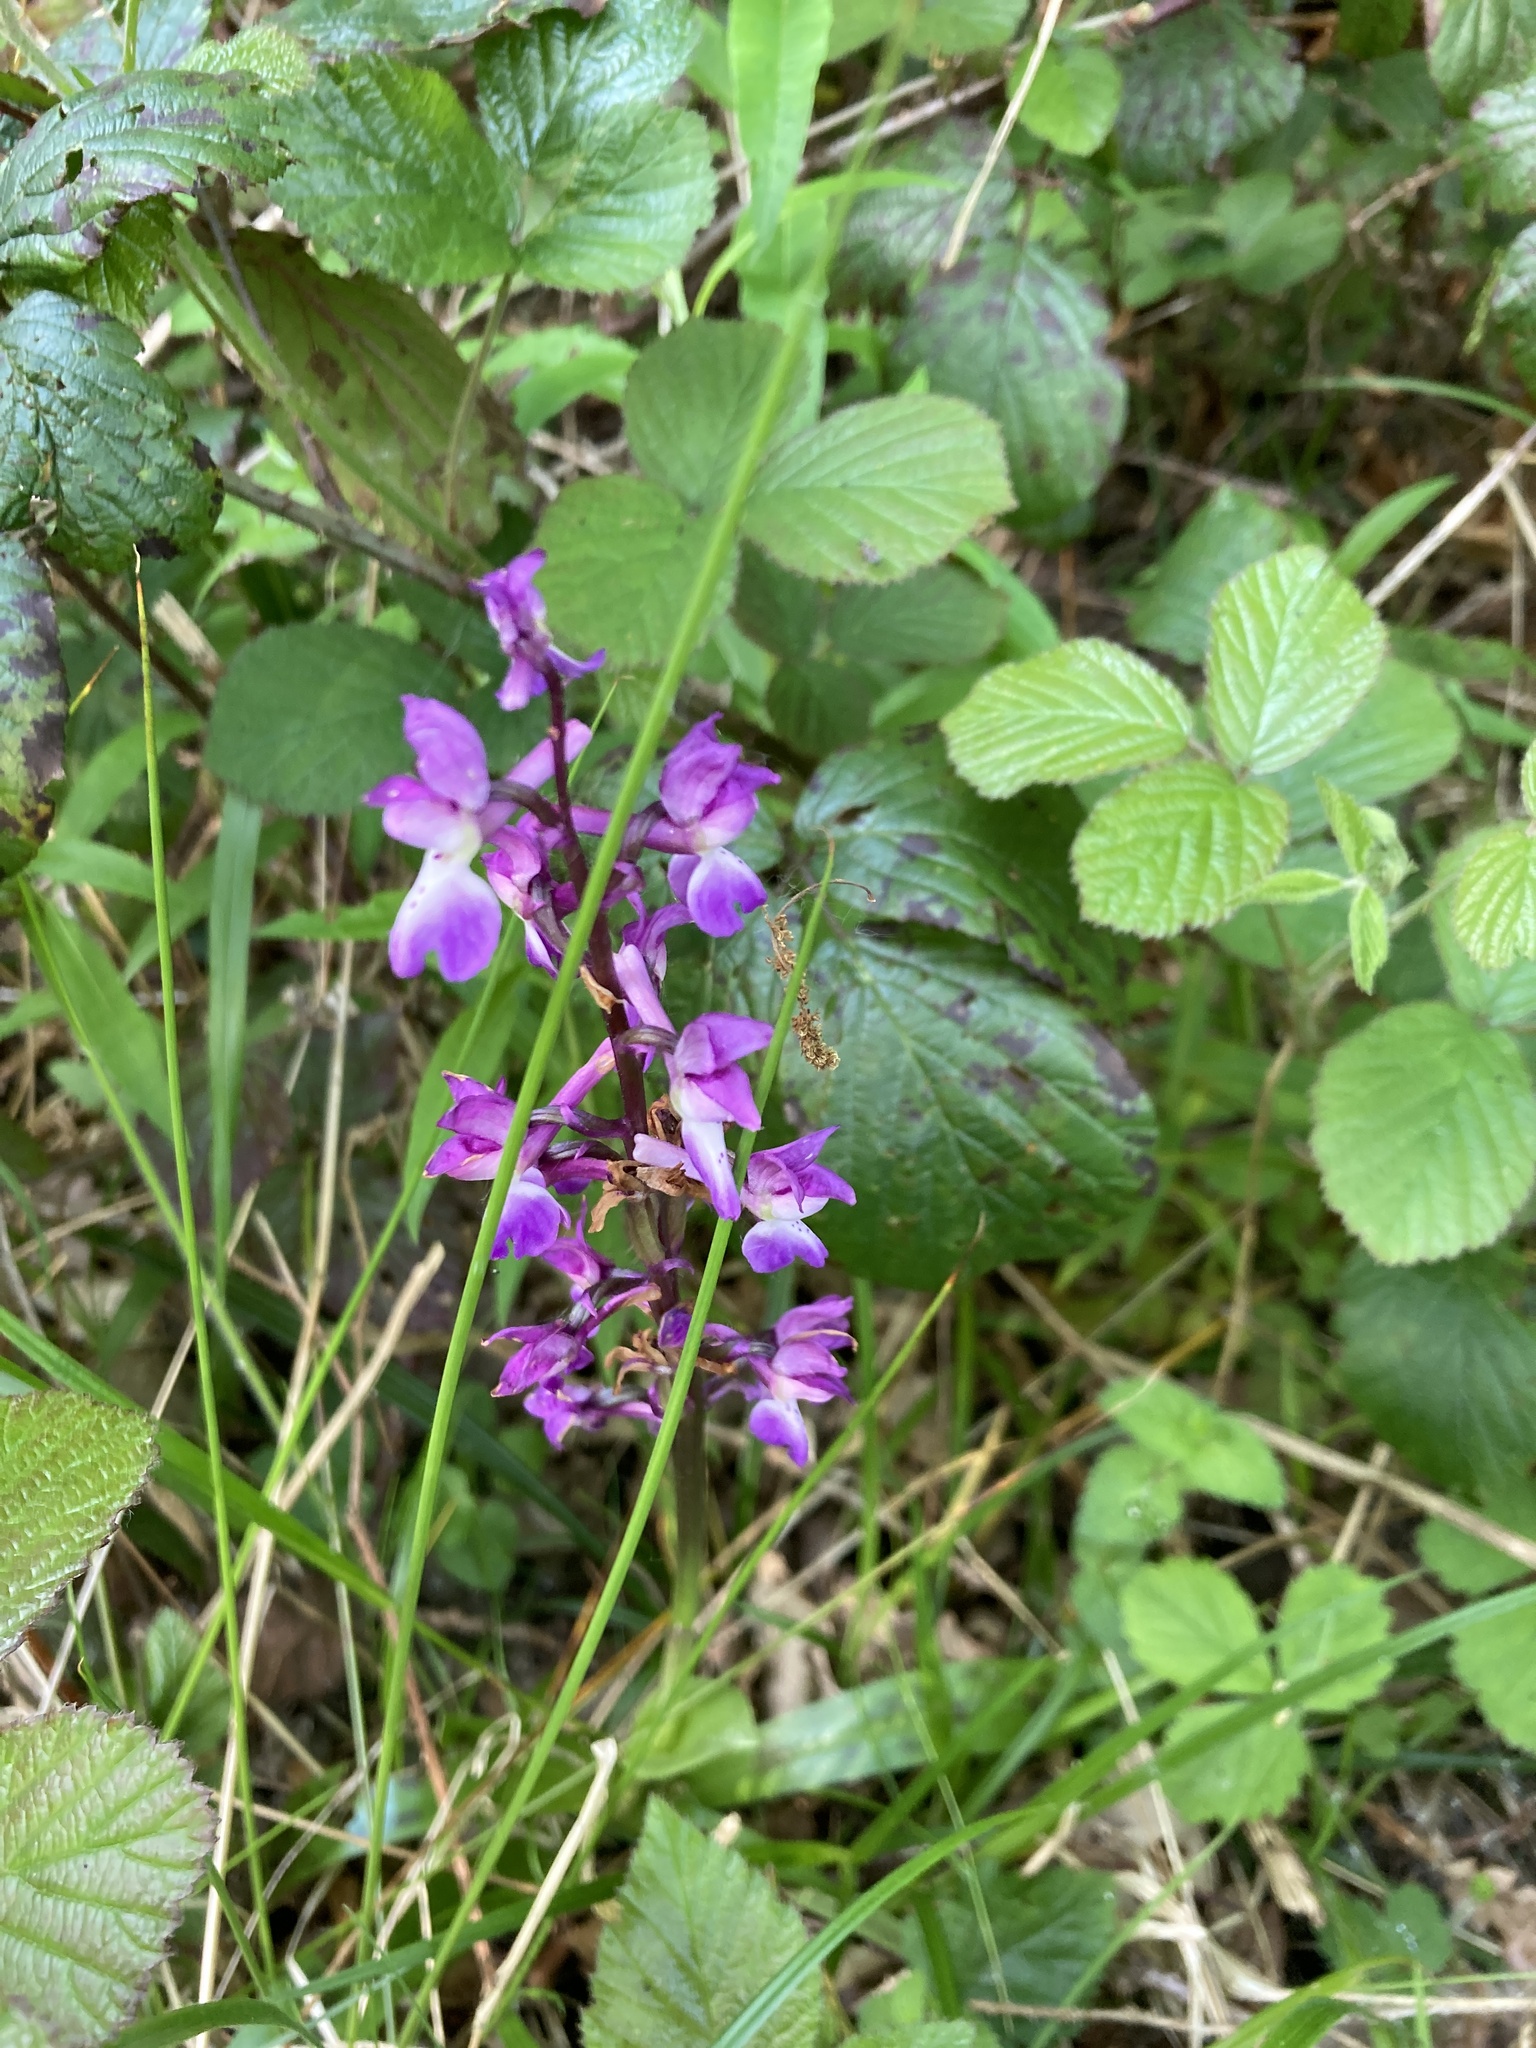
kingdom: Plantae
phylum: Tracheophyta
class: Liliopsida
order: Asparagales
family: Orchidaceae
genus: Orchis
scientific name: Orchis mascula
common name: Early-purple orchid
